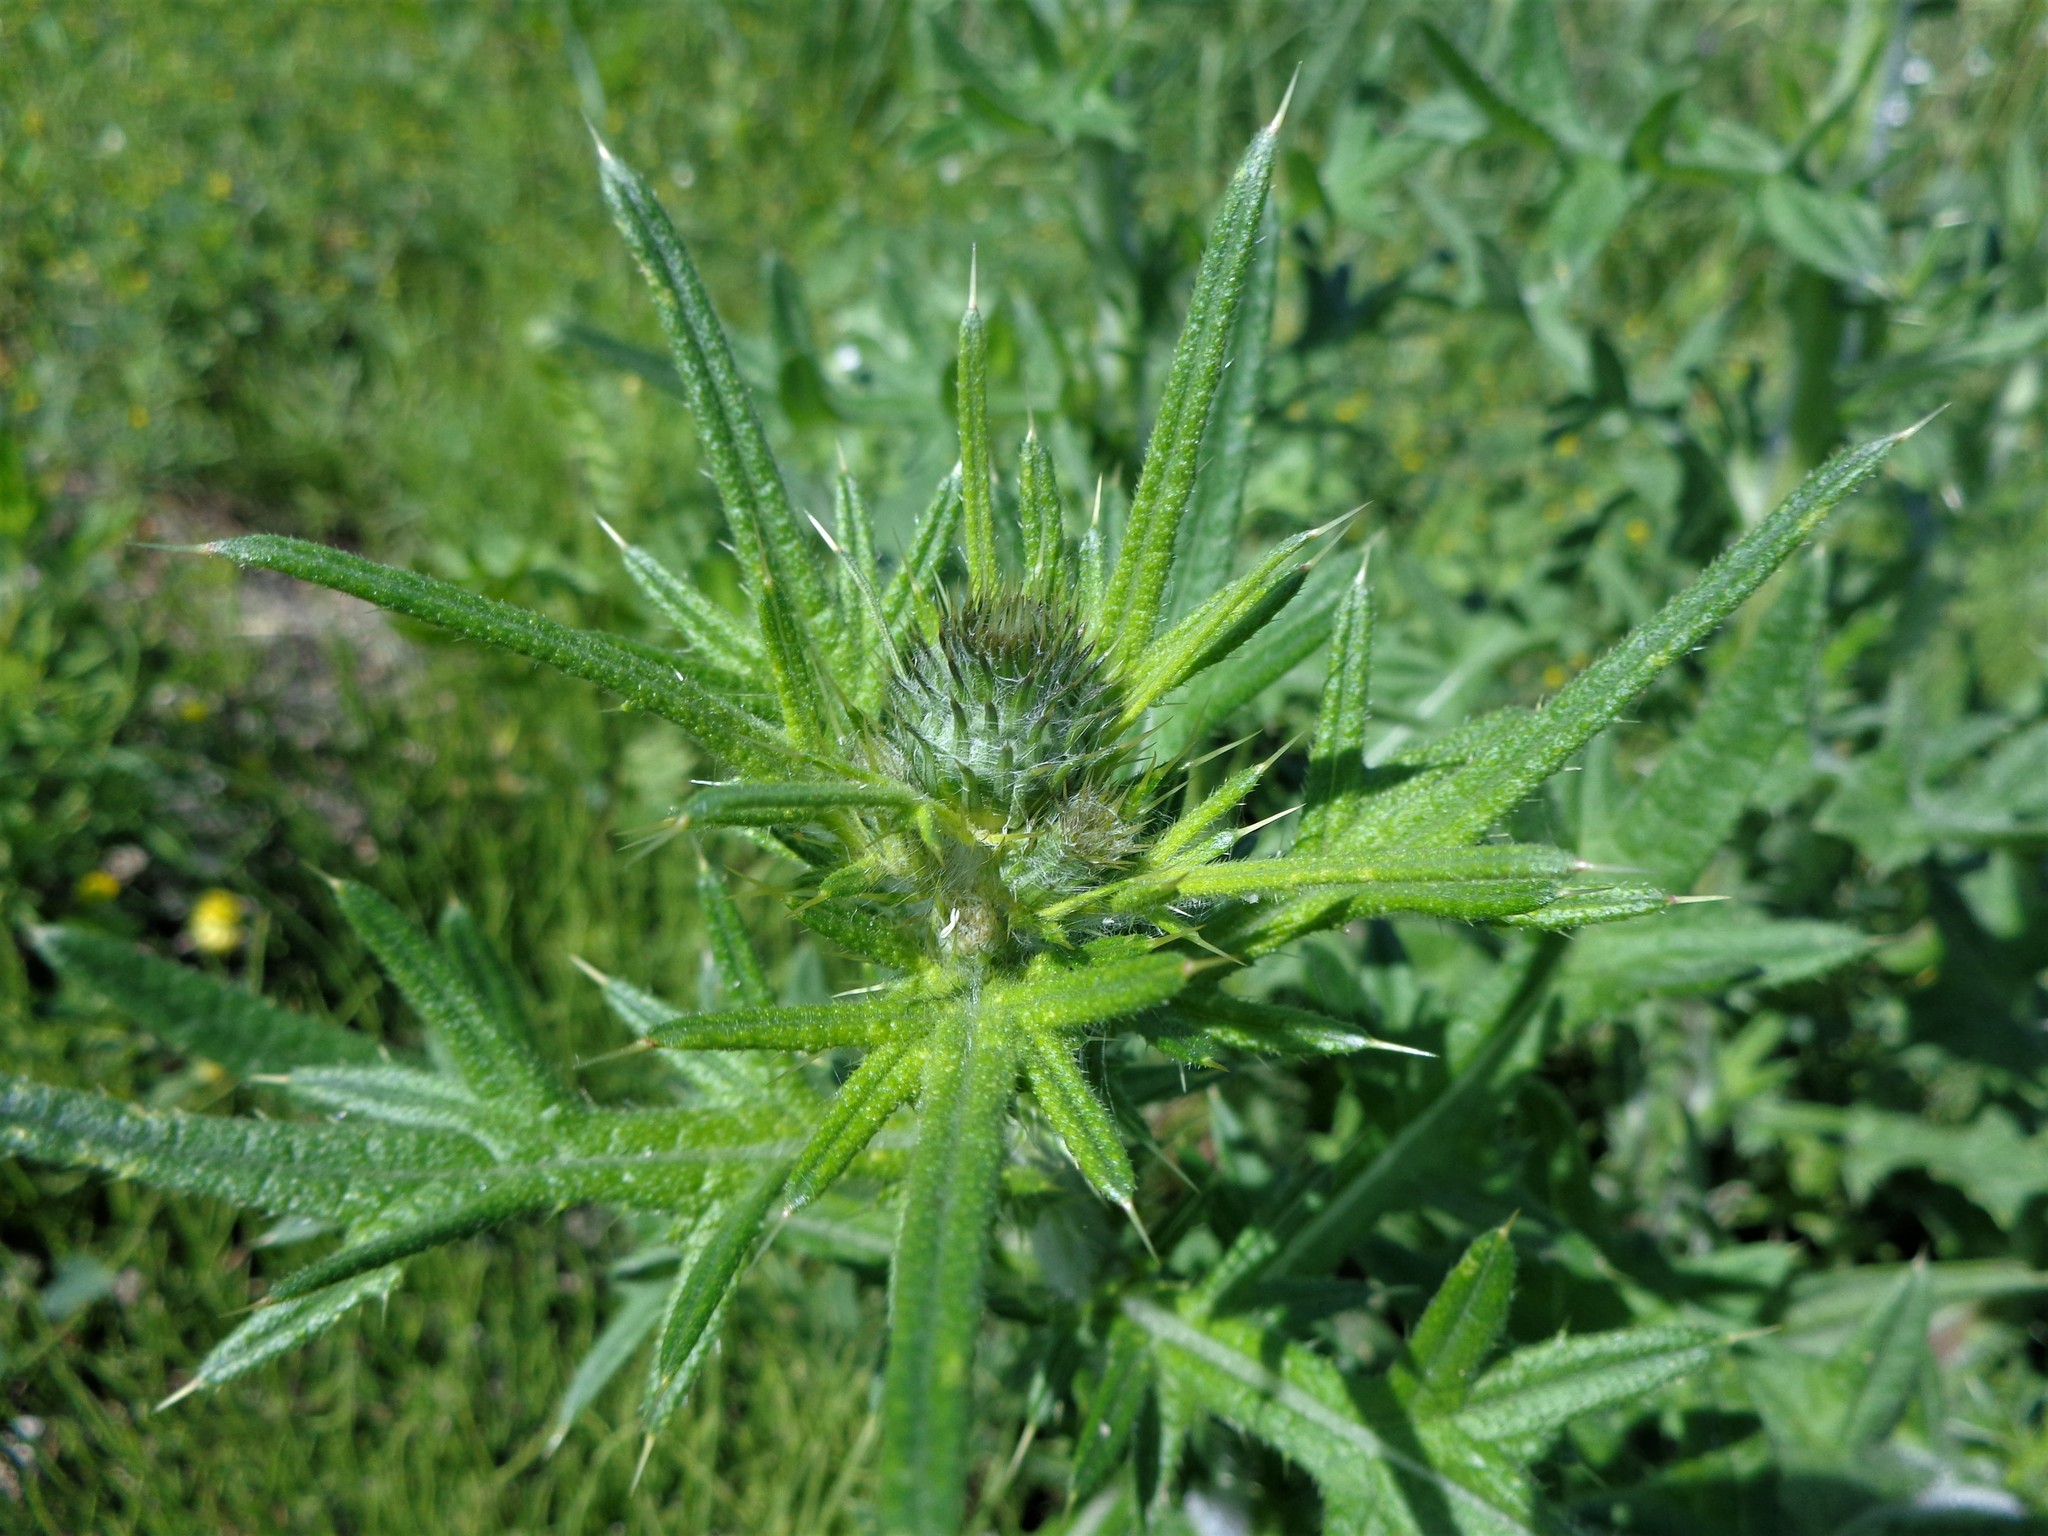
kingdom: Plantae
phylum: Tracheophyta
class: Magnoliopsida
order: Asterales
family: Asteraceae
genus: Cirsium
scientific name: Cirsium vulgare
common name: Bull thistle
